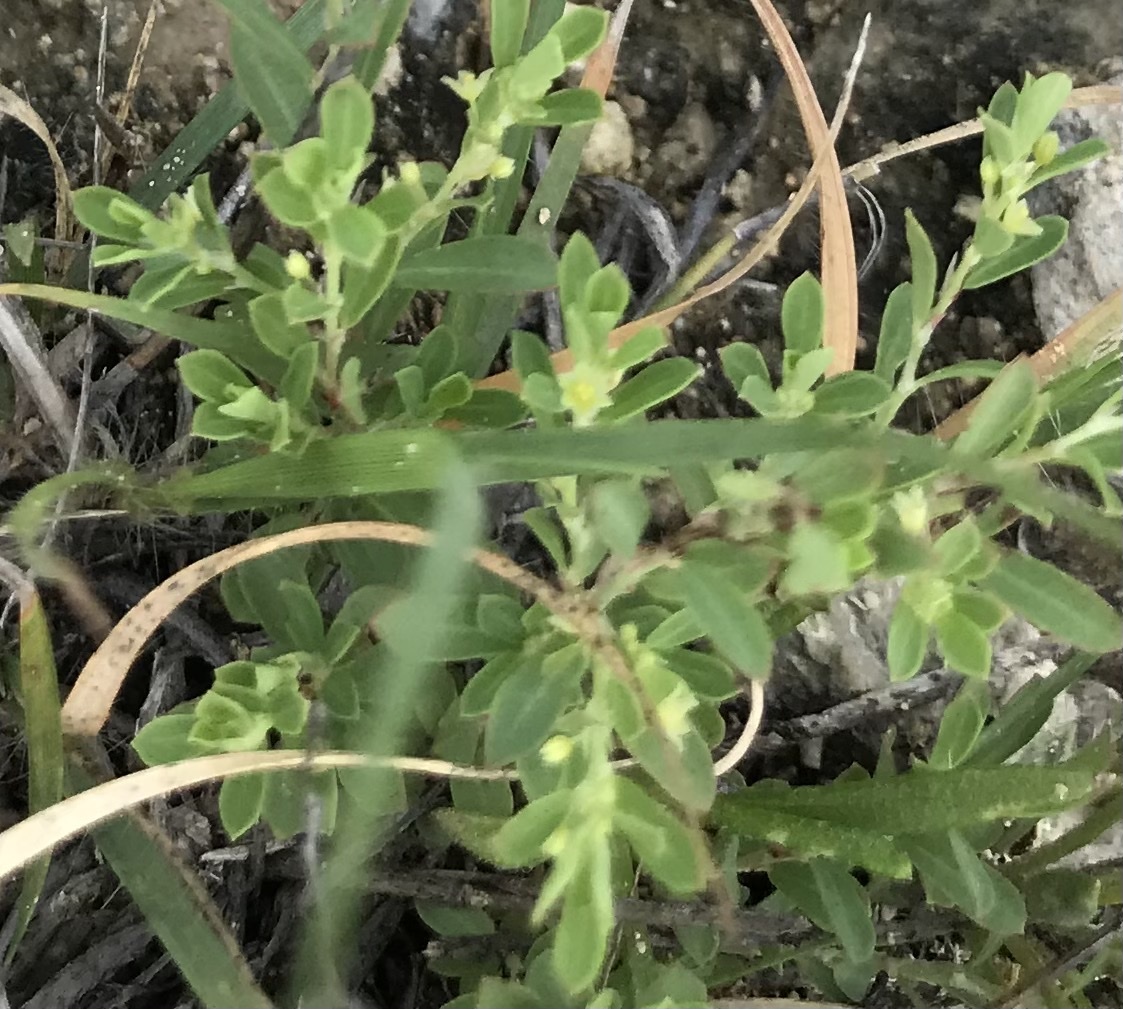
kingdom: Plantae
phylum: Tracheophyta
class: Magnoliopsida
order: Malpighiales
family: Phyllanthaceae
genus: Phyllanthus
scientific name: Phyllanthus polygonoides
